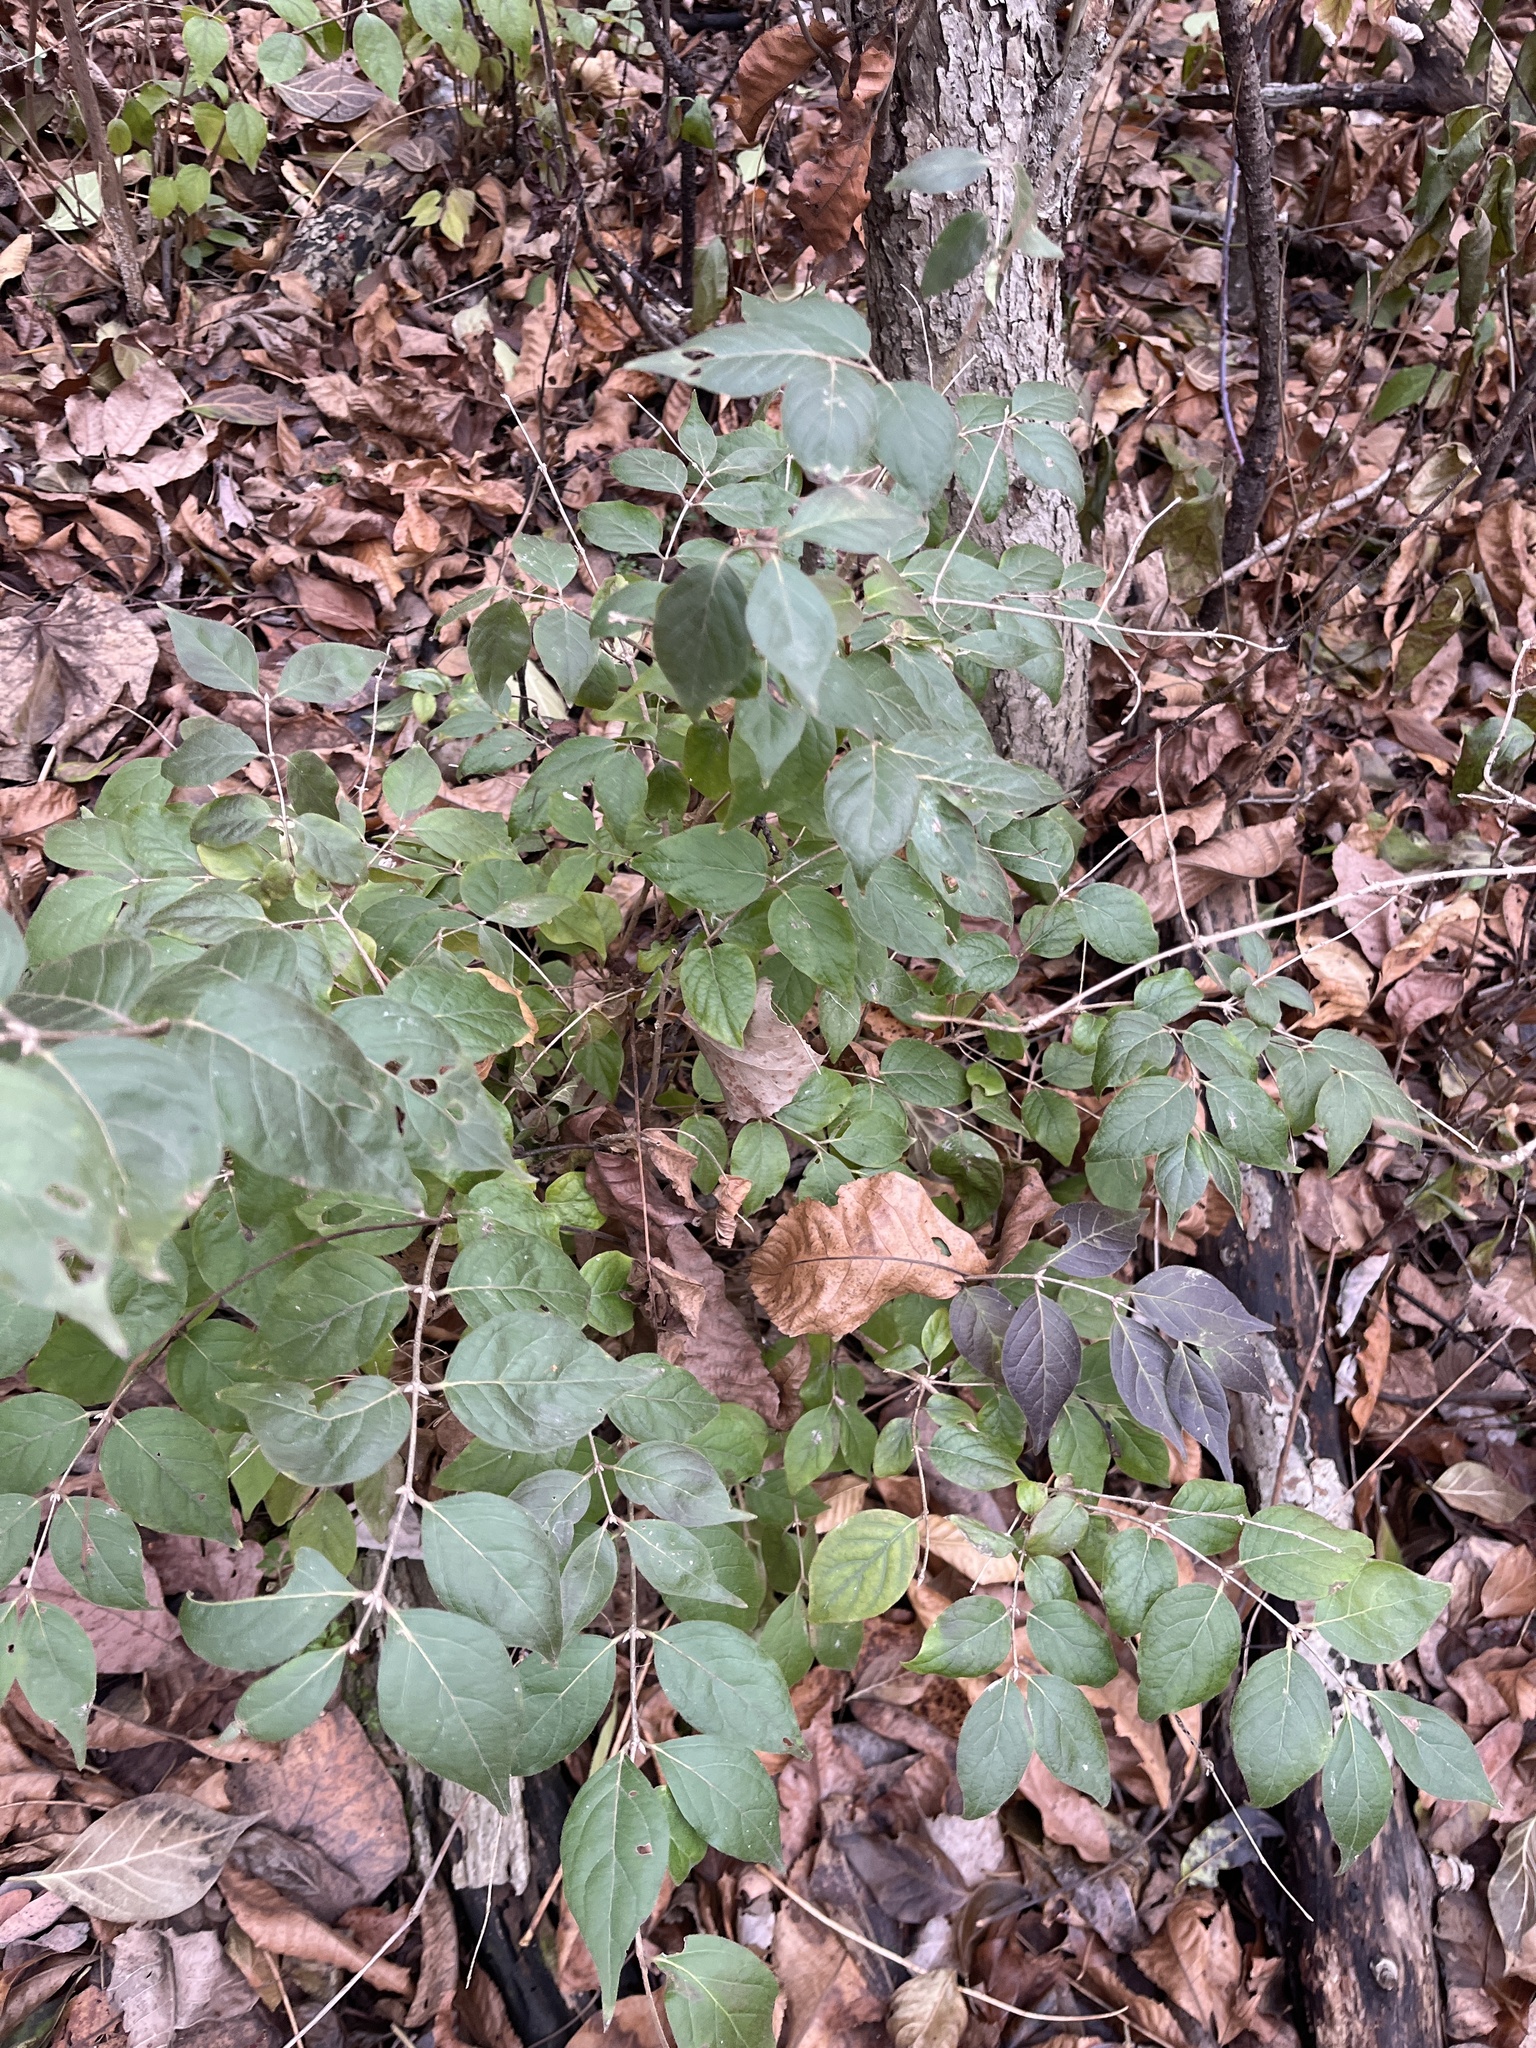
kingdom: Plantae
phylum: Tracheophyta
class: Magnoliopsida
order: Dipsacales
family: Caprifoliaceae
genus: Lonicera
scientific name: Lonicera maackii
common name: Amur honeysuckle
